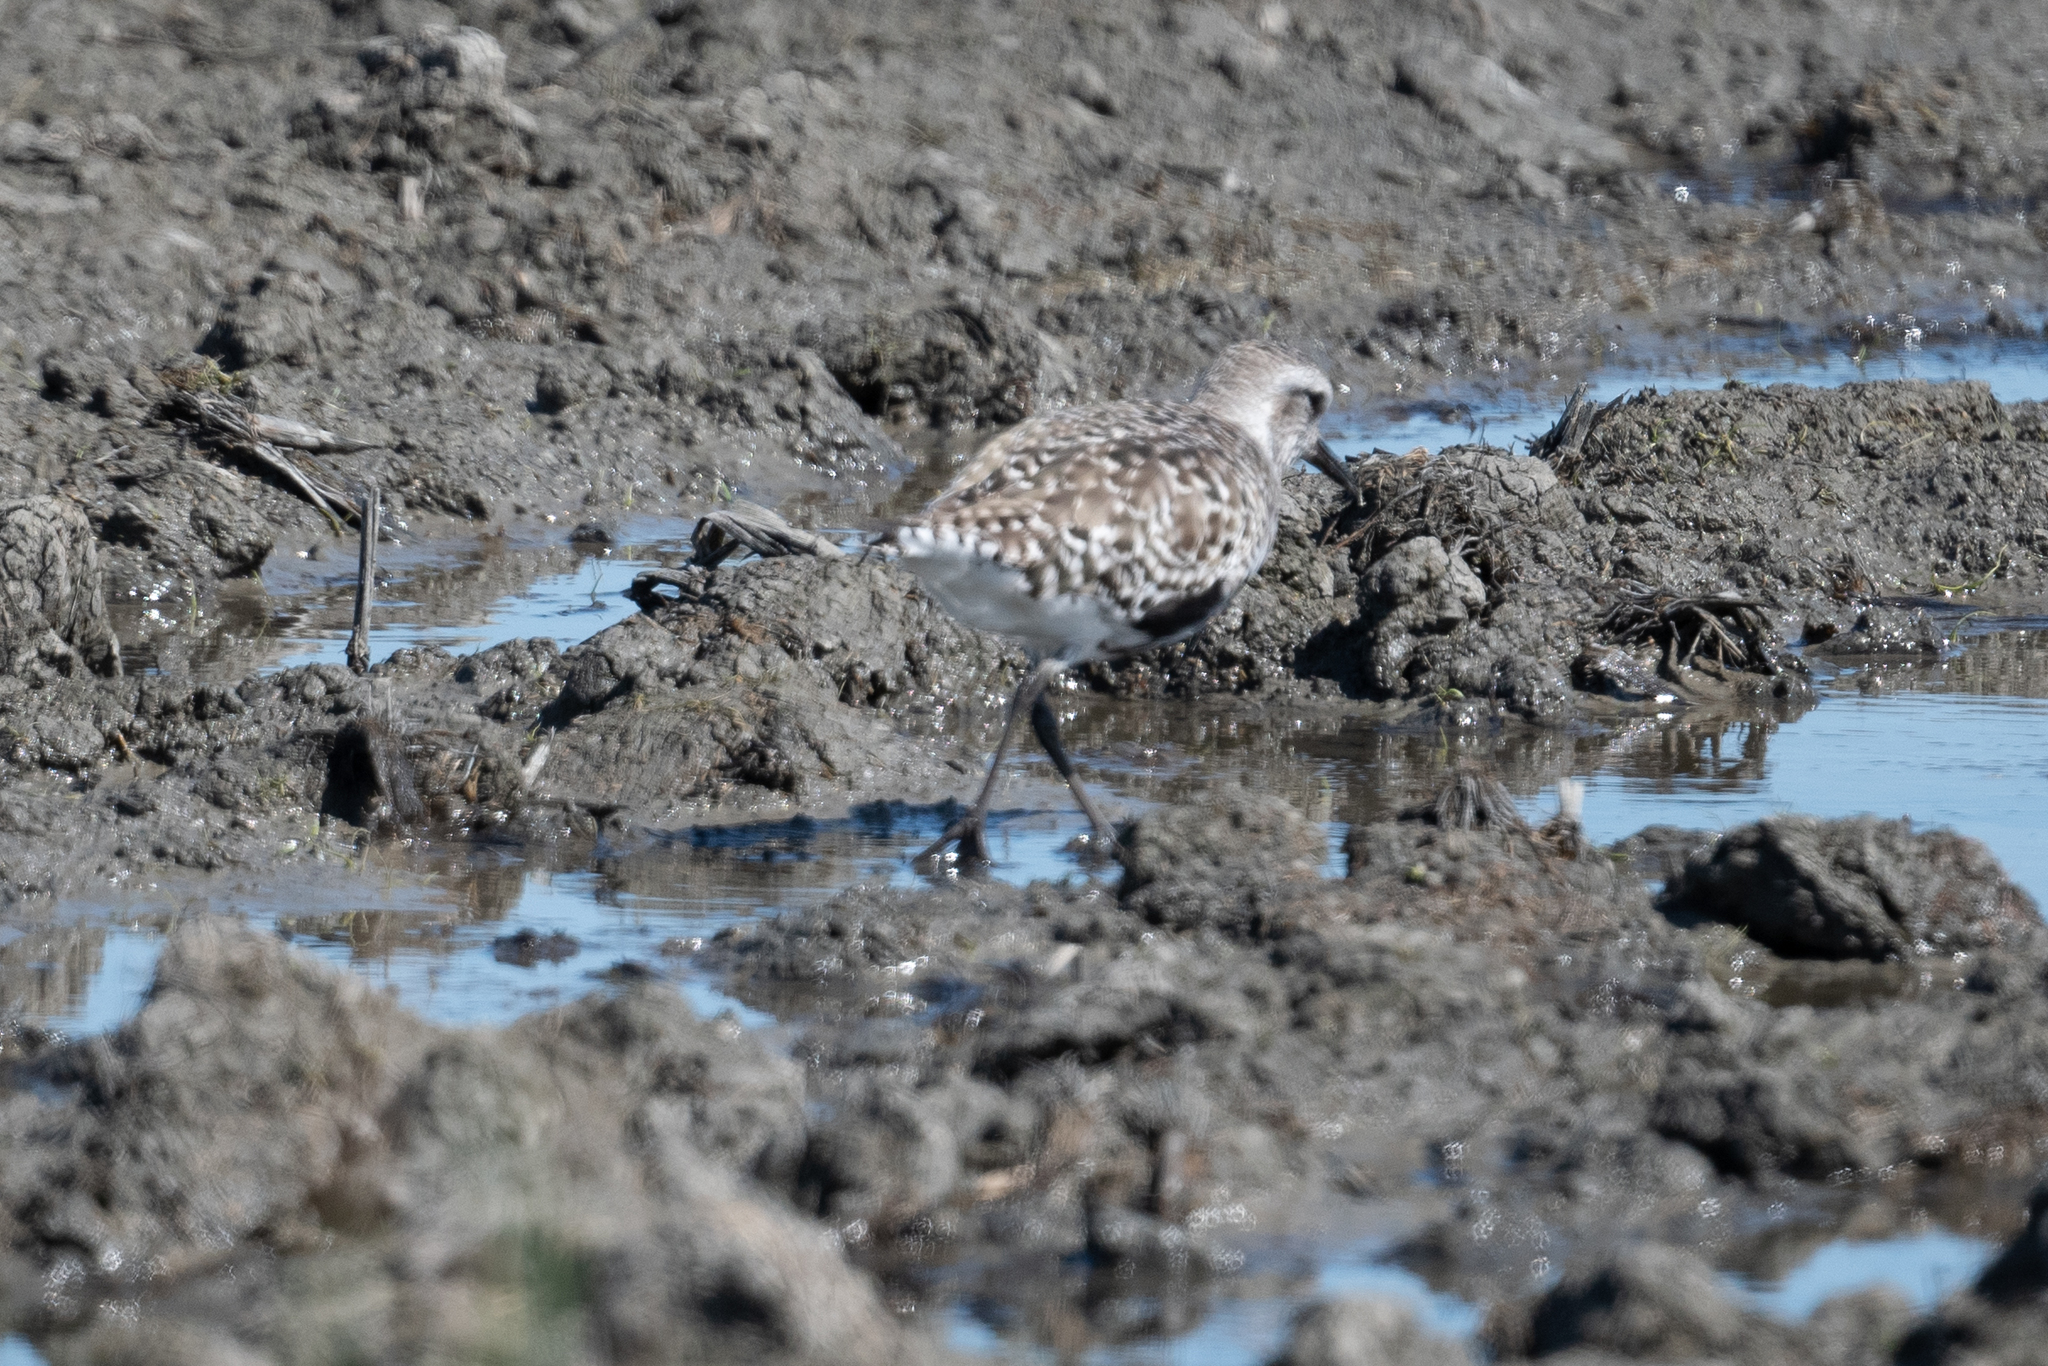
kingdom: Animalia
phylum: Chordata
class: Aves
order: Charadriiformes
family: Charadriidae
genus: Pluvialis
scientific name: Pluvialis squatarola
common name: Grey plover
